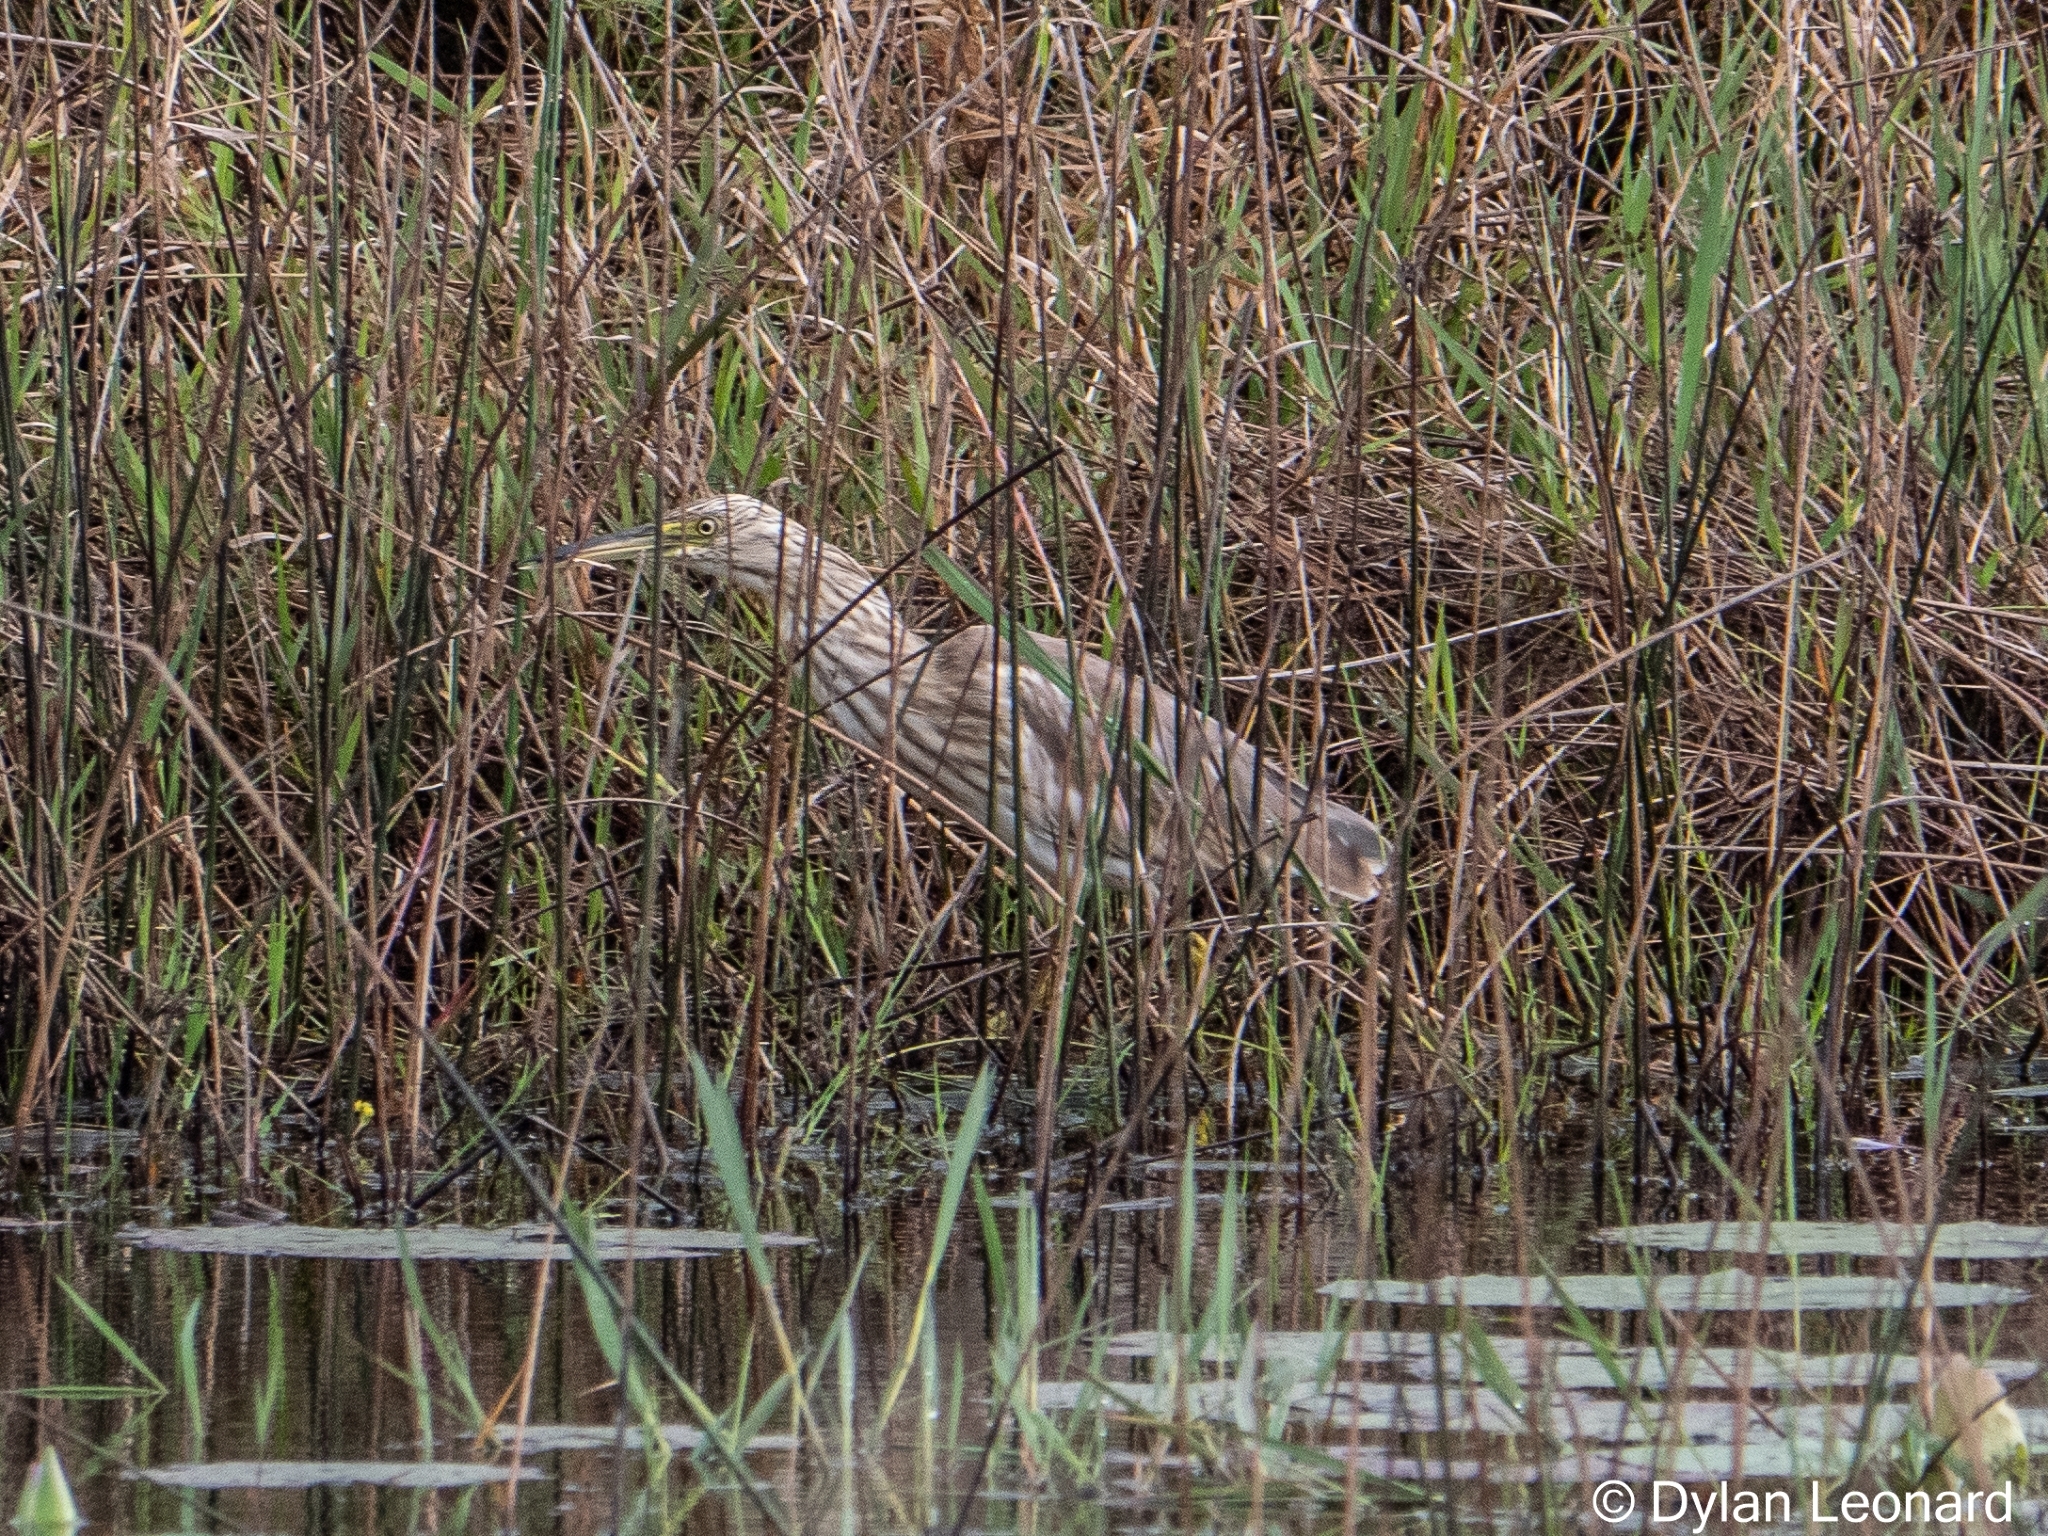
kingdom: Animalia
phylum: Chordata
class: Aves
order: Pelecaniformes
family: Ardeidae
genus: Ardeola
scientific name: Ardeola ralloides
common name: Squacco heron
